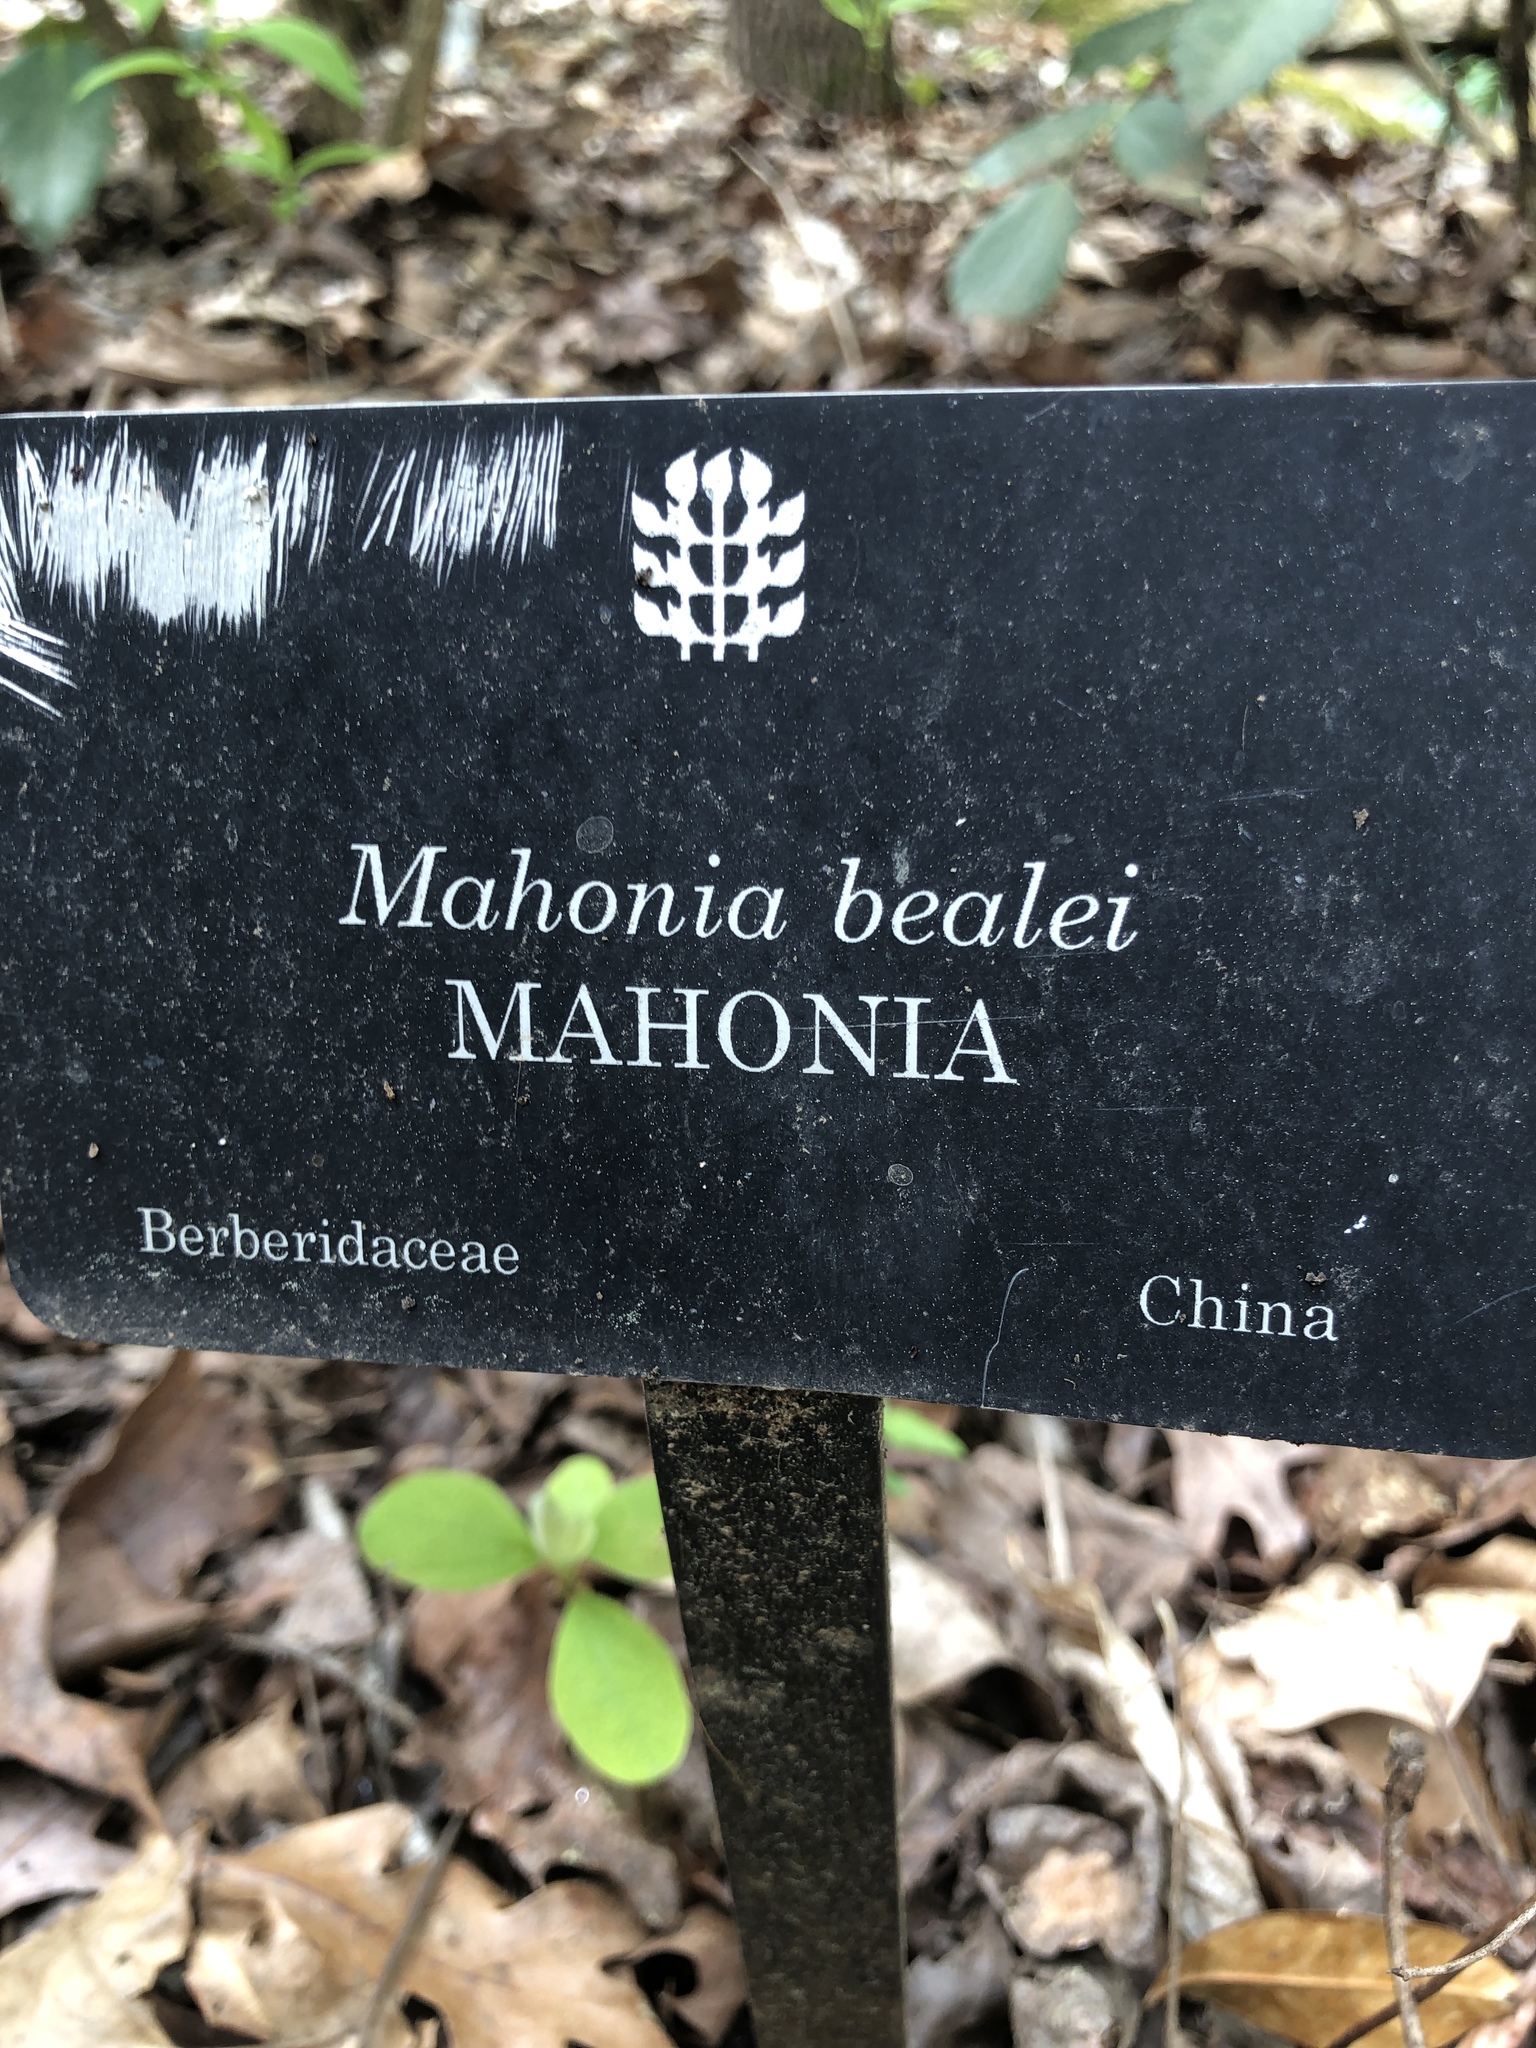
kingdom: Plantae
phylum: Tracheophyta
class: Magnoliopsida
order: Ranunculales
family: Berberidaceae
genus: Mahonia
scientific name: Mahonia bealei
